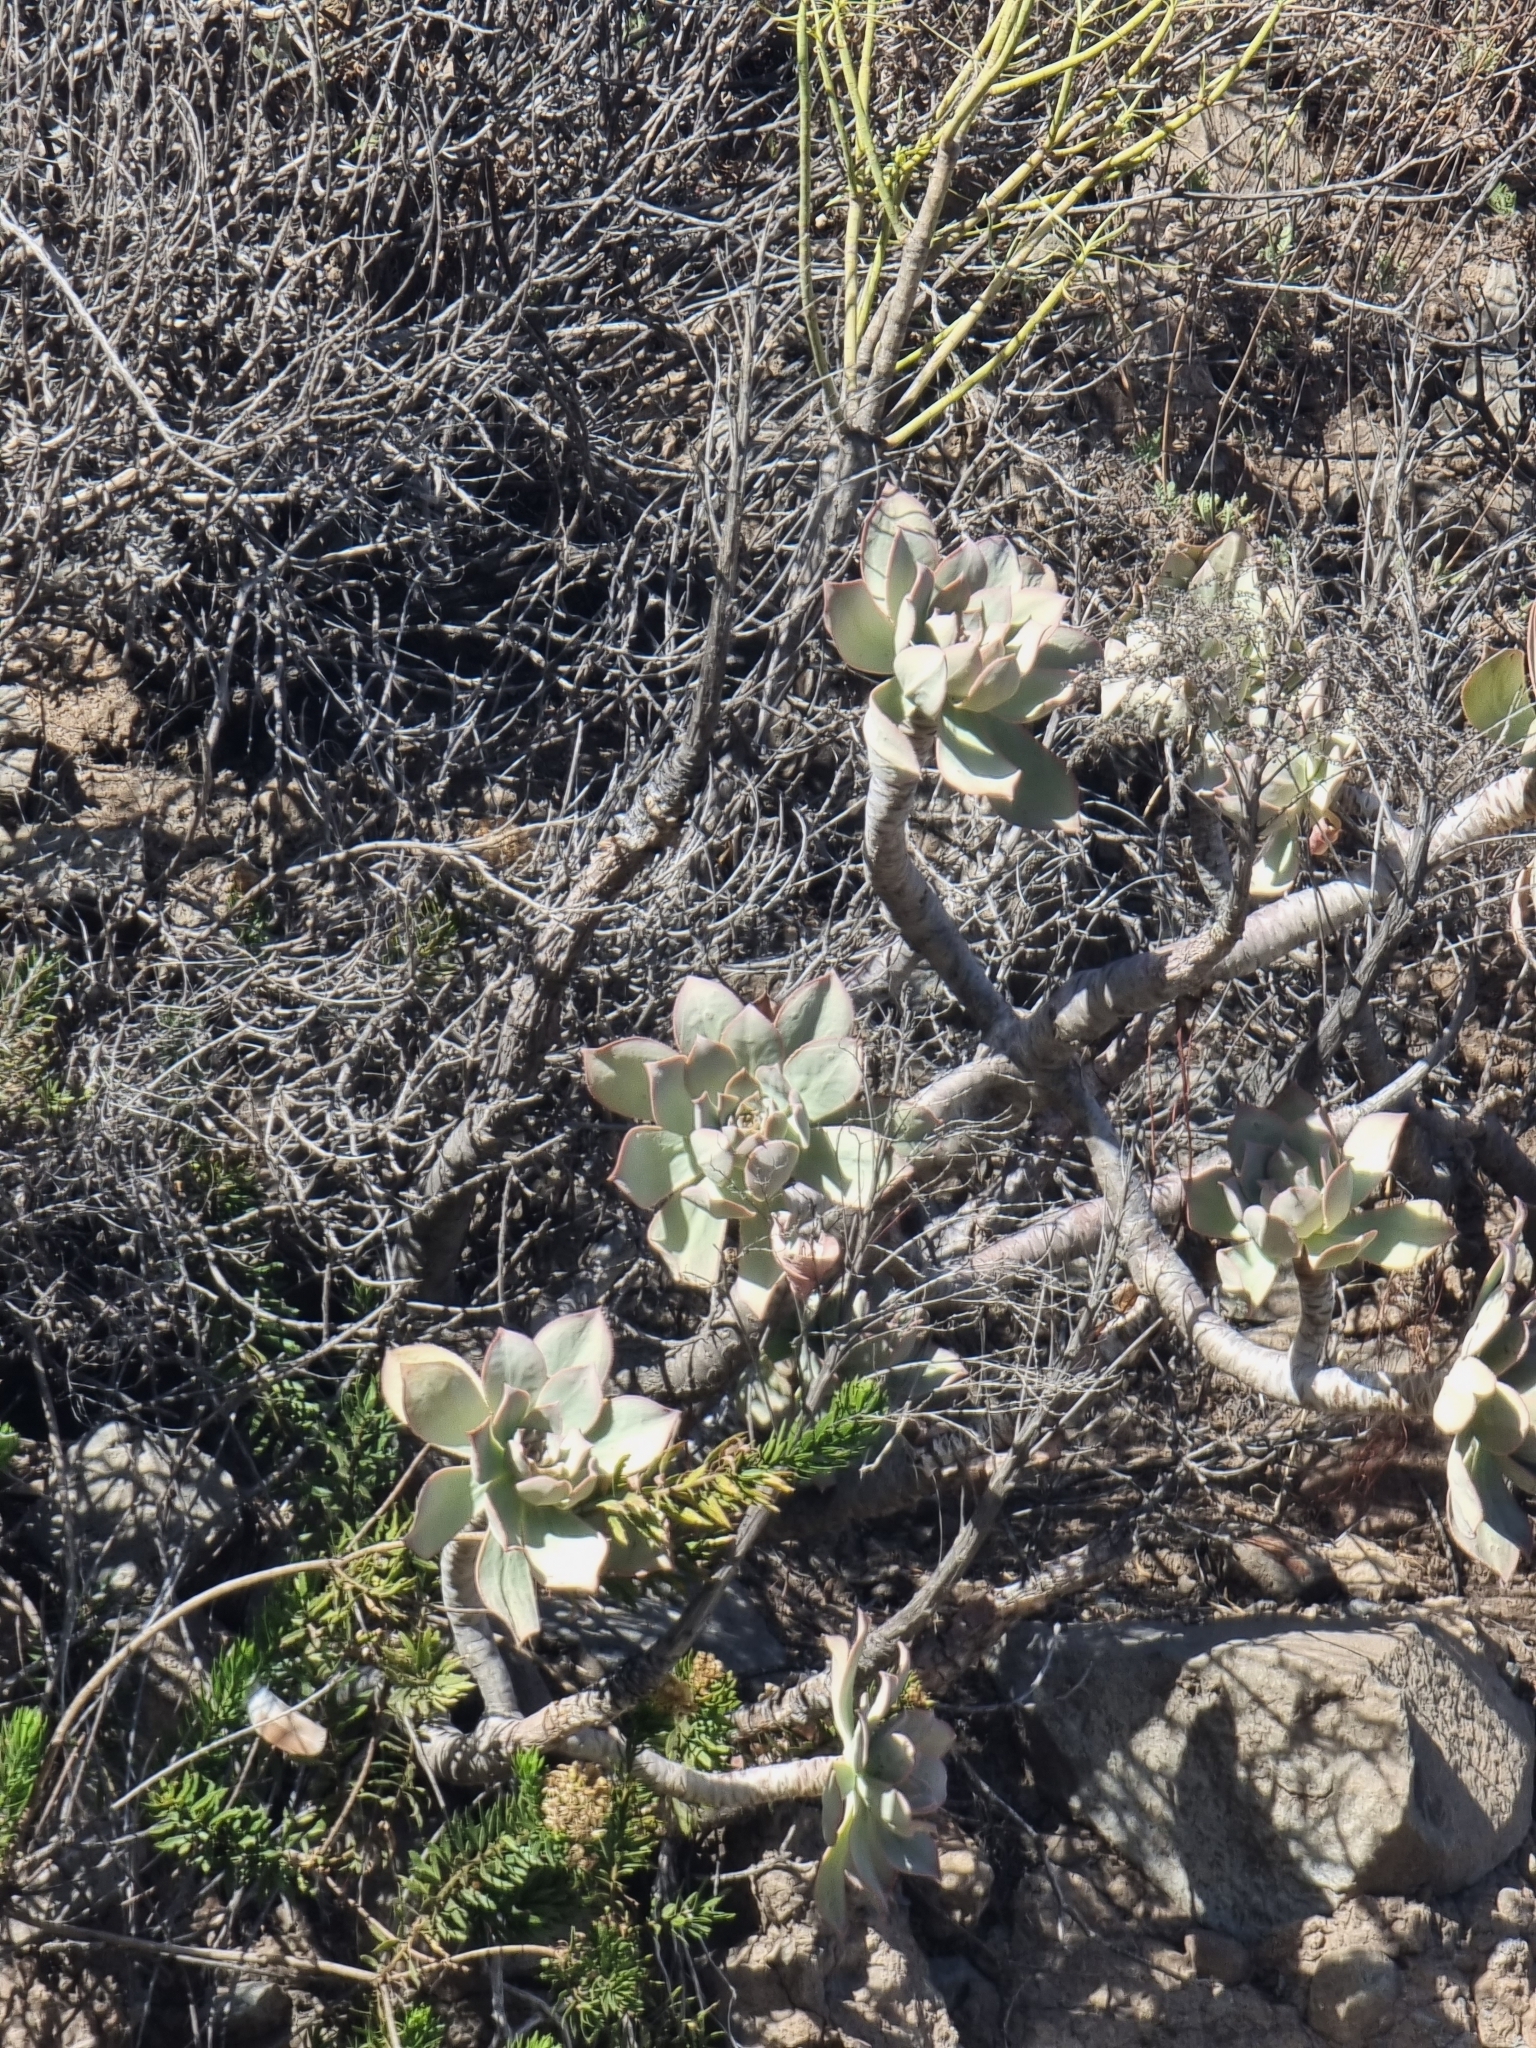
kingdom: Plantae
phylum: Tracheophyta
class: Magnoliopsida
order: Saxifragales
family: Crassulaceae
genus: Aeonium
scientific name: Aeonium percarneum
